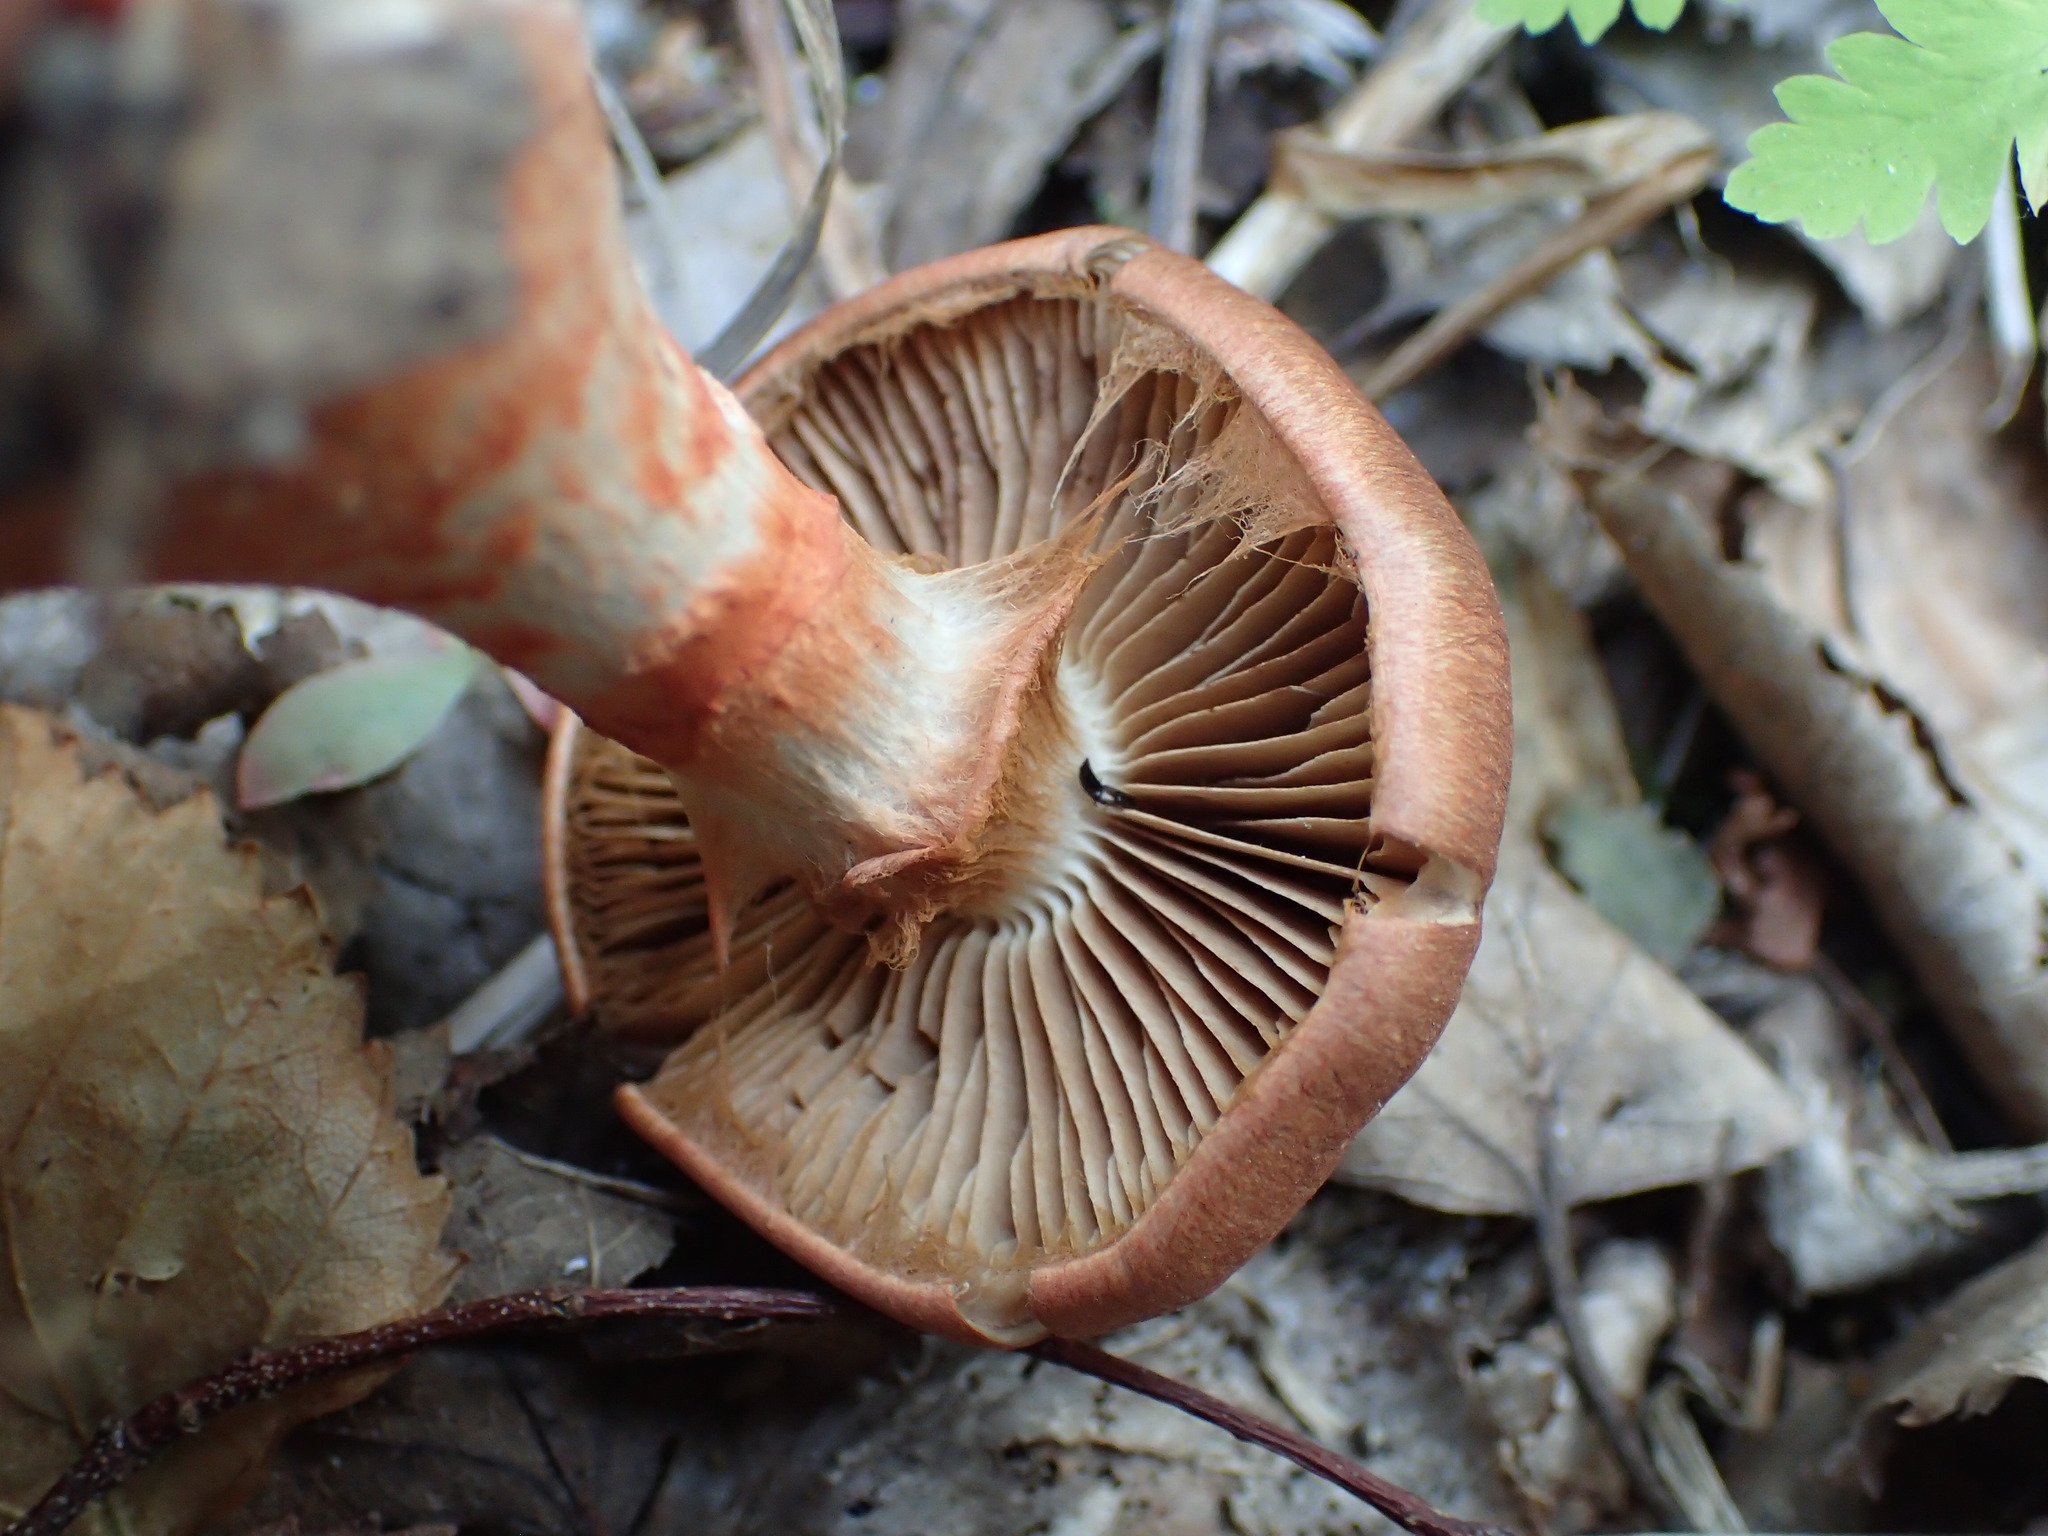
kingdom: Fungi
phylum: Basidiomycota
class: Agaricomycetes
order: Agaricales
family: Cortinariaceae
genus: Cortinarius
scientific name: Cortinarius armillatus
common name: Red banded webcap
